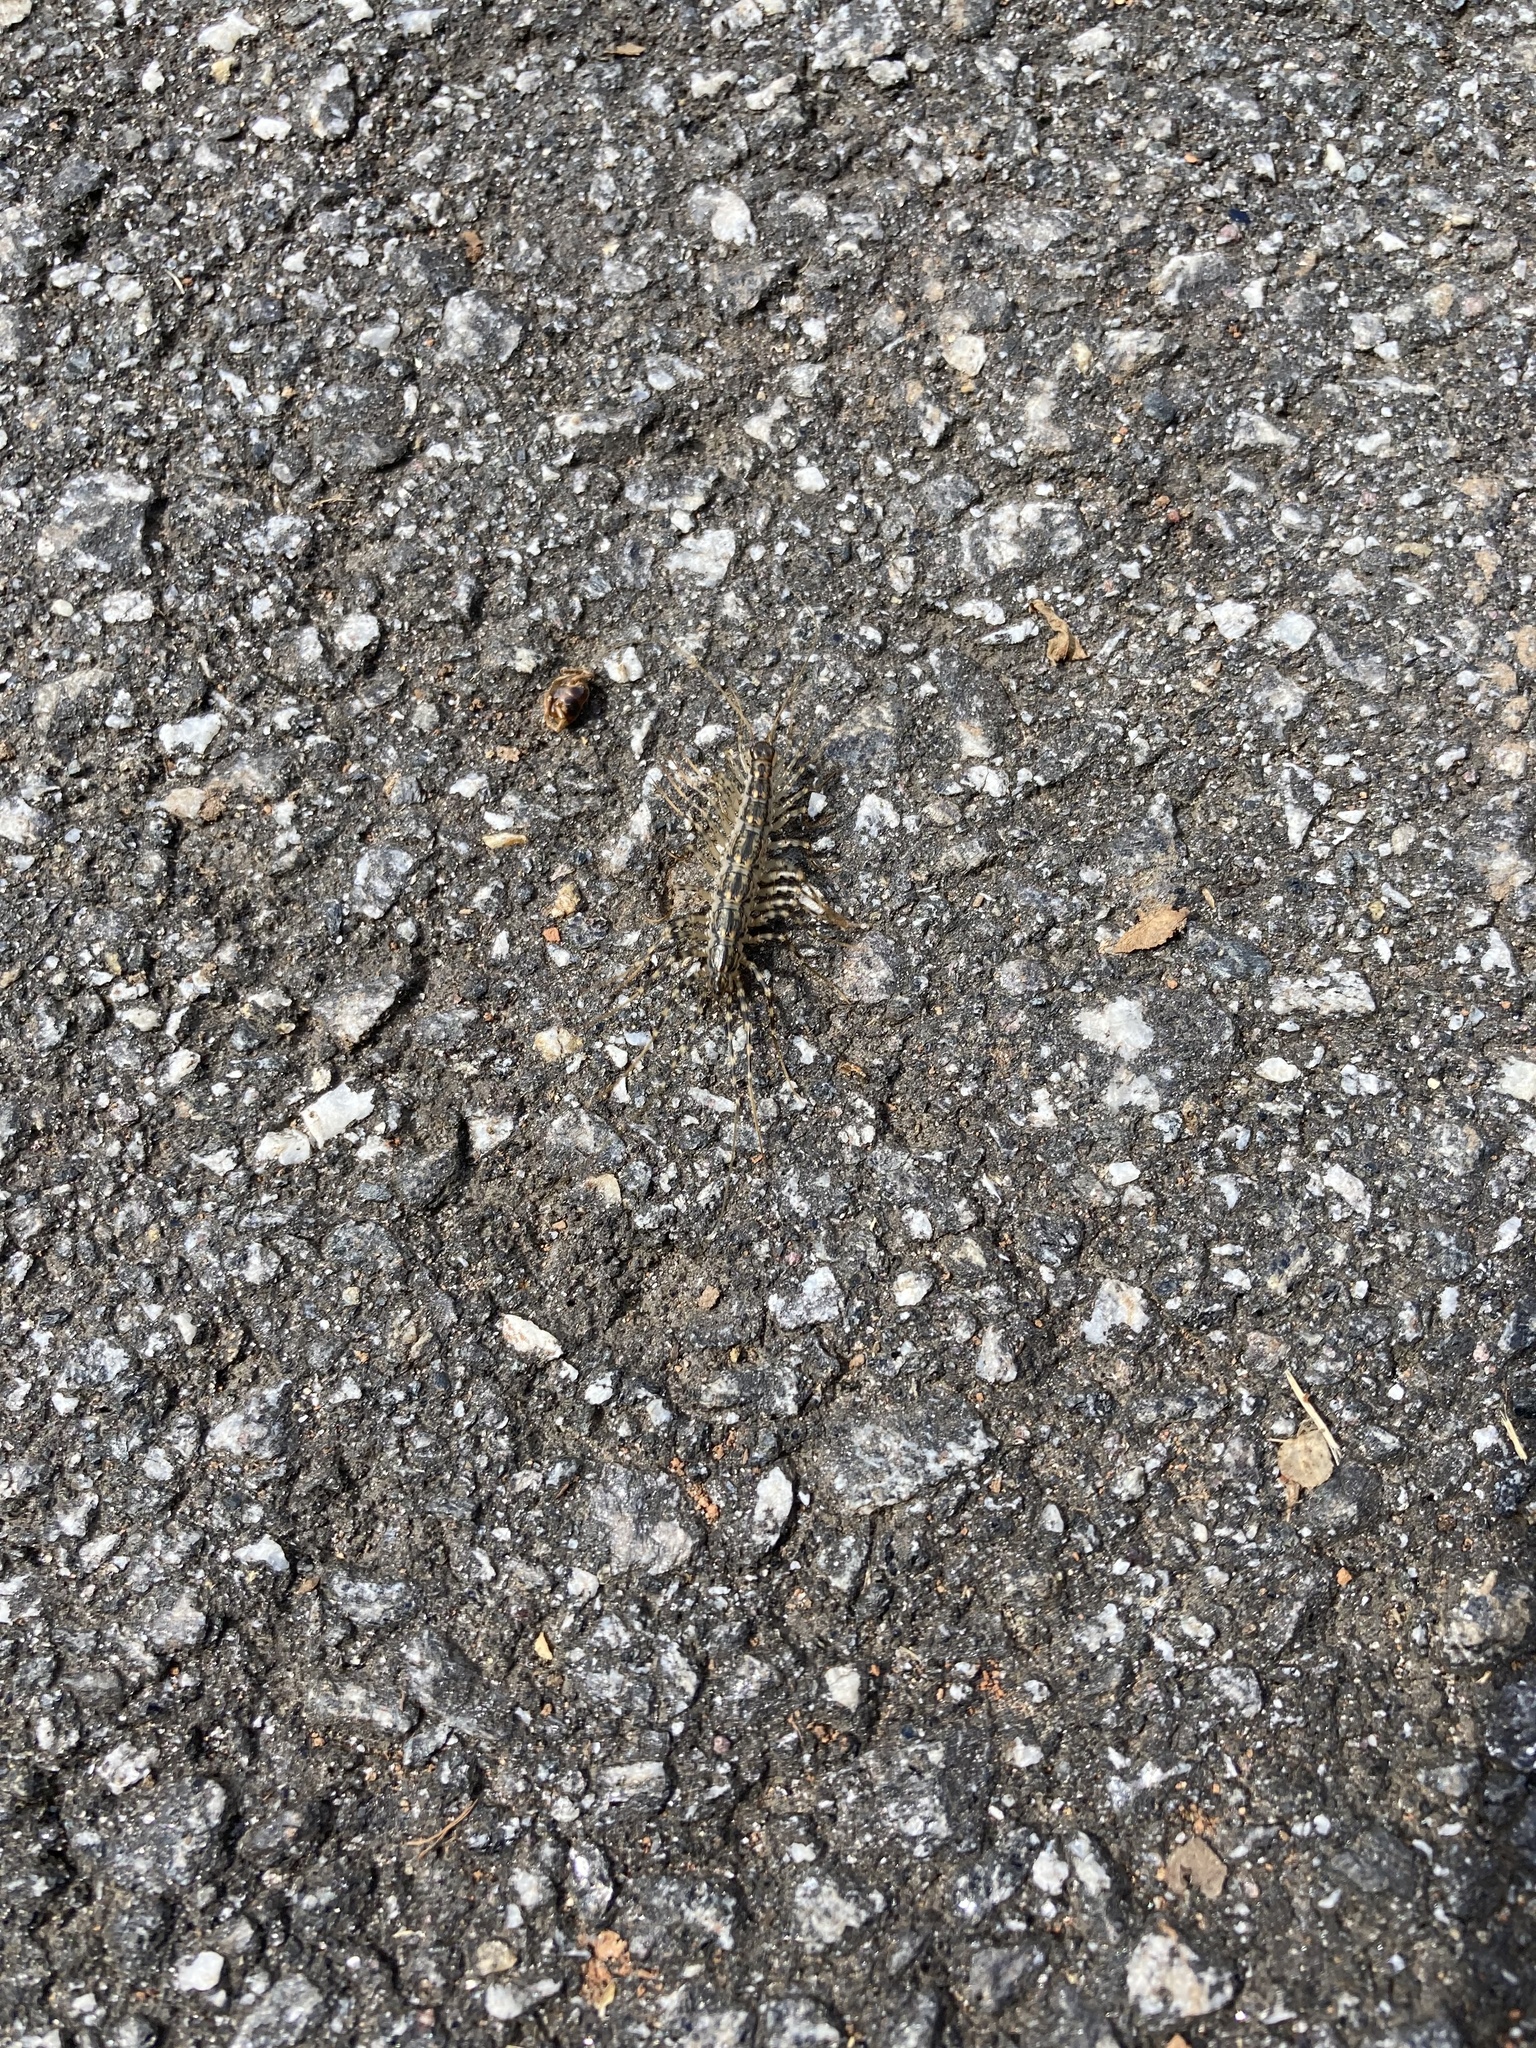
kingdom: Animalia
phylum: Arthropoda
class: Chilopoda
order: Scutigeromorpha
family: Scutigeridae
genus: Scutigera
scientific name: Scutigera coleoptrata
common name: House centipede
